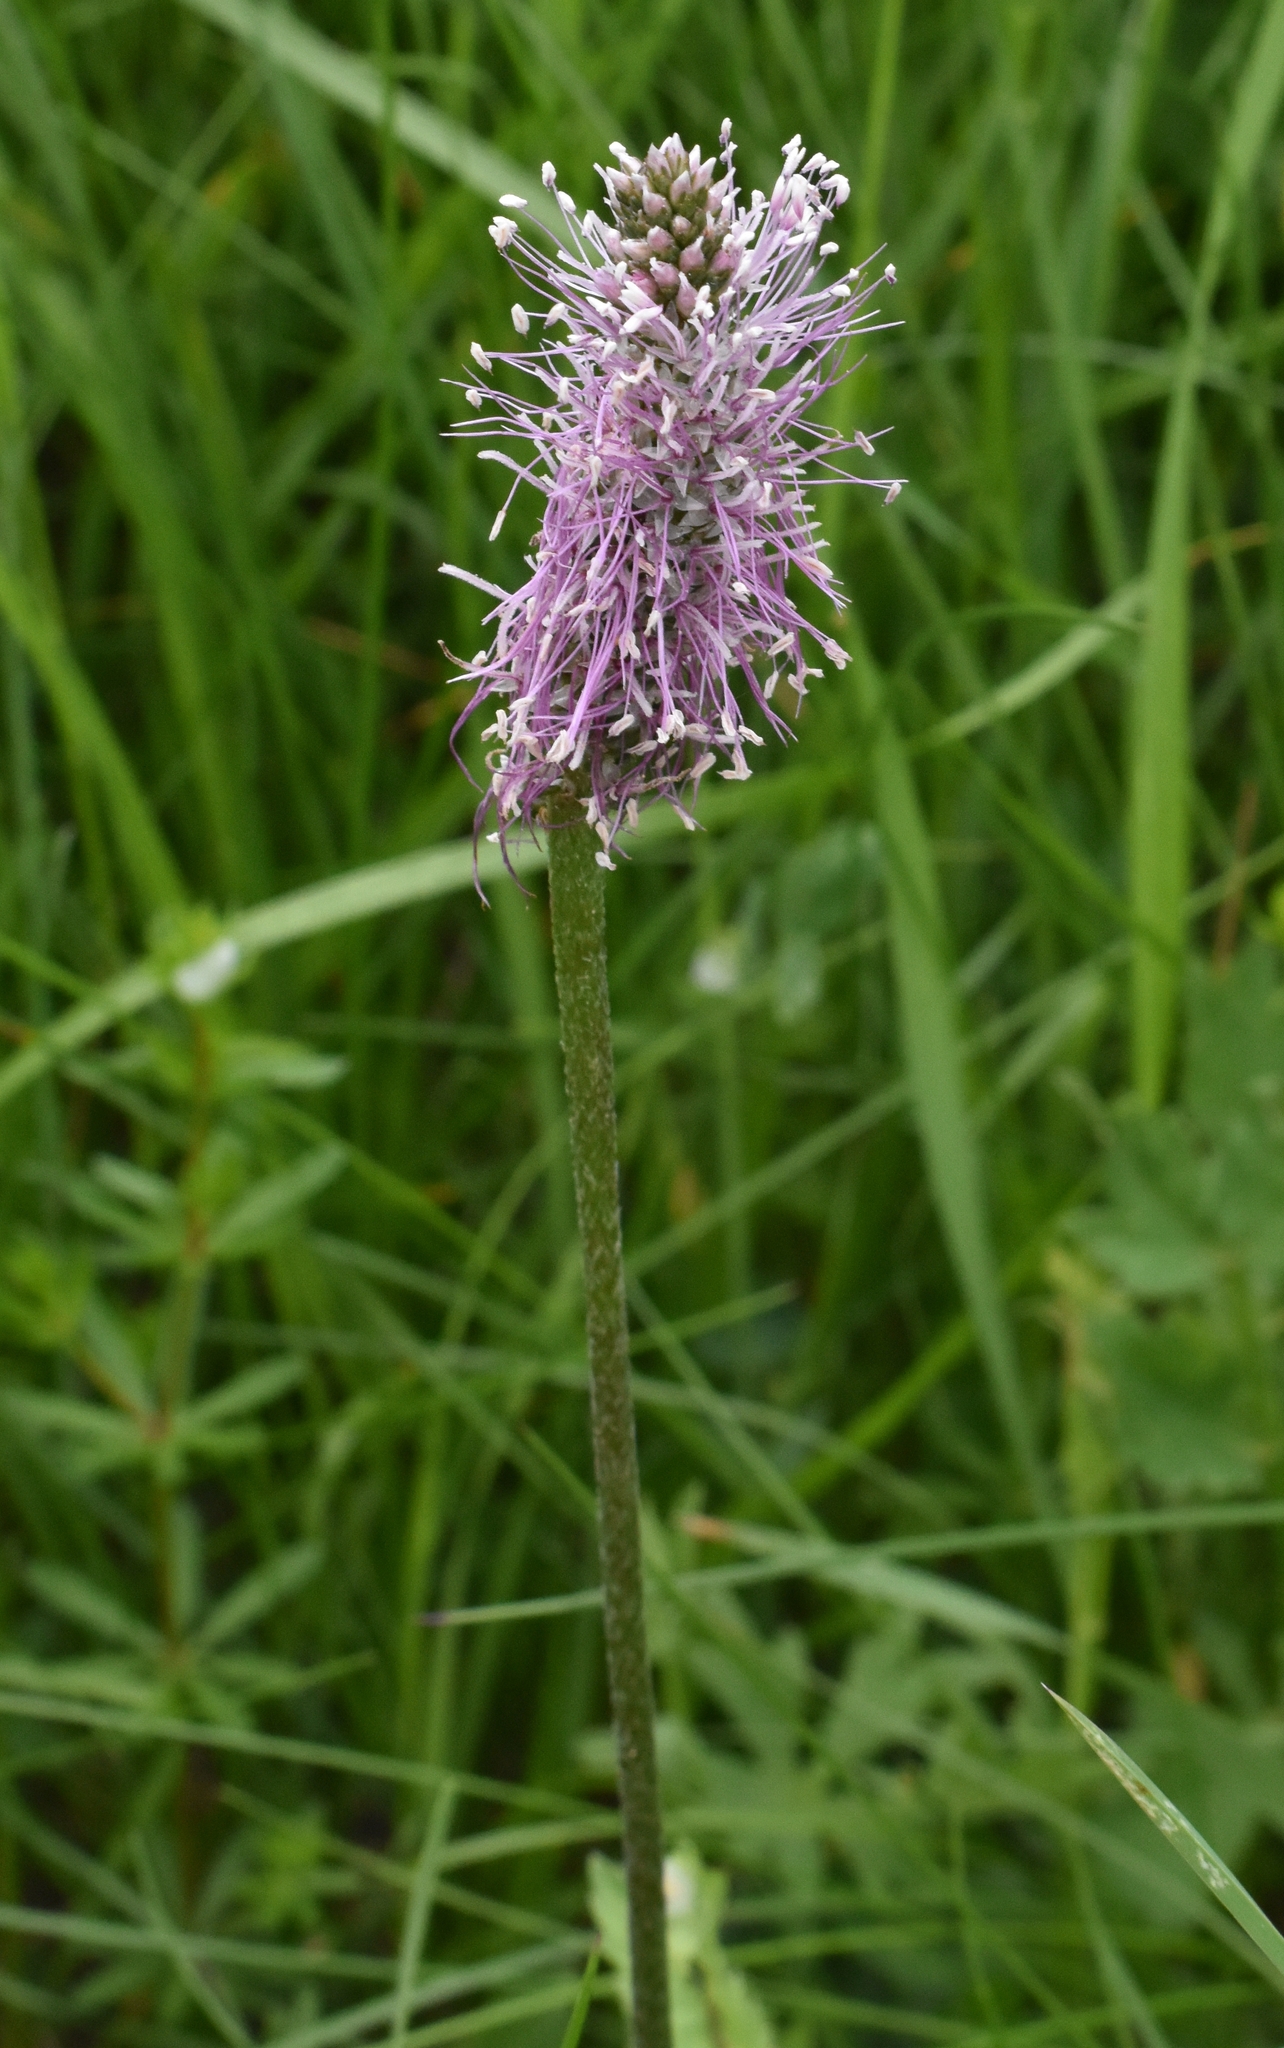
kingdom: Plantae
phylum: Tracheophyta
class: Magnoliopsida
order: Lamiales
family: Plantaginaceae
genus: Plantago
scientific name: Plantago media
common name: Hoary plantain
